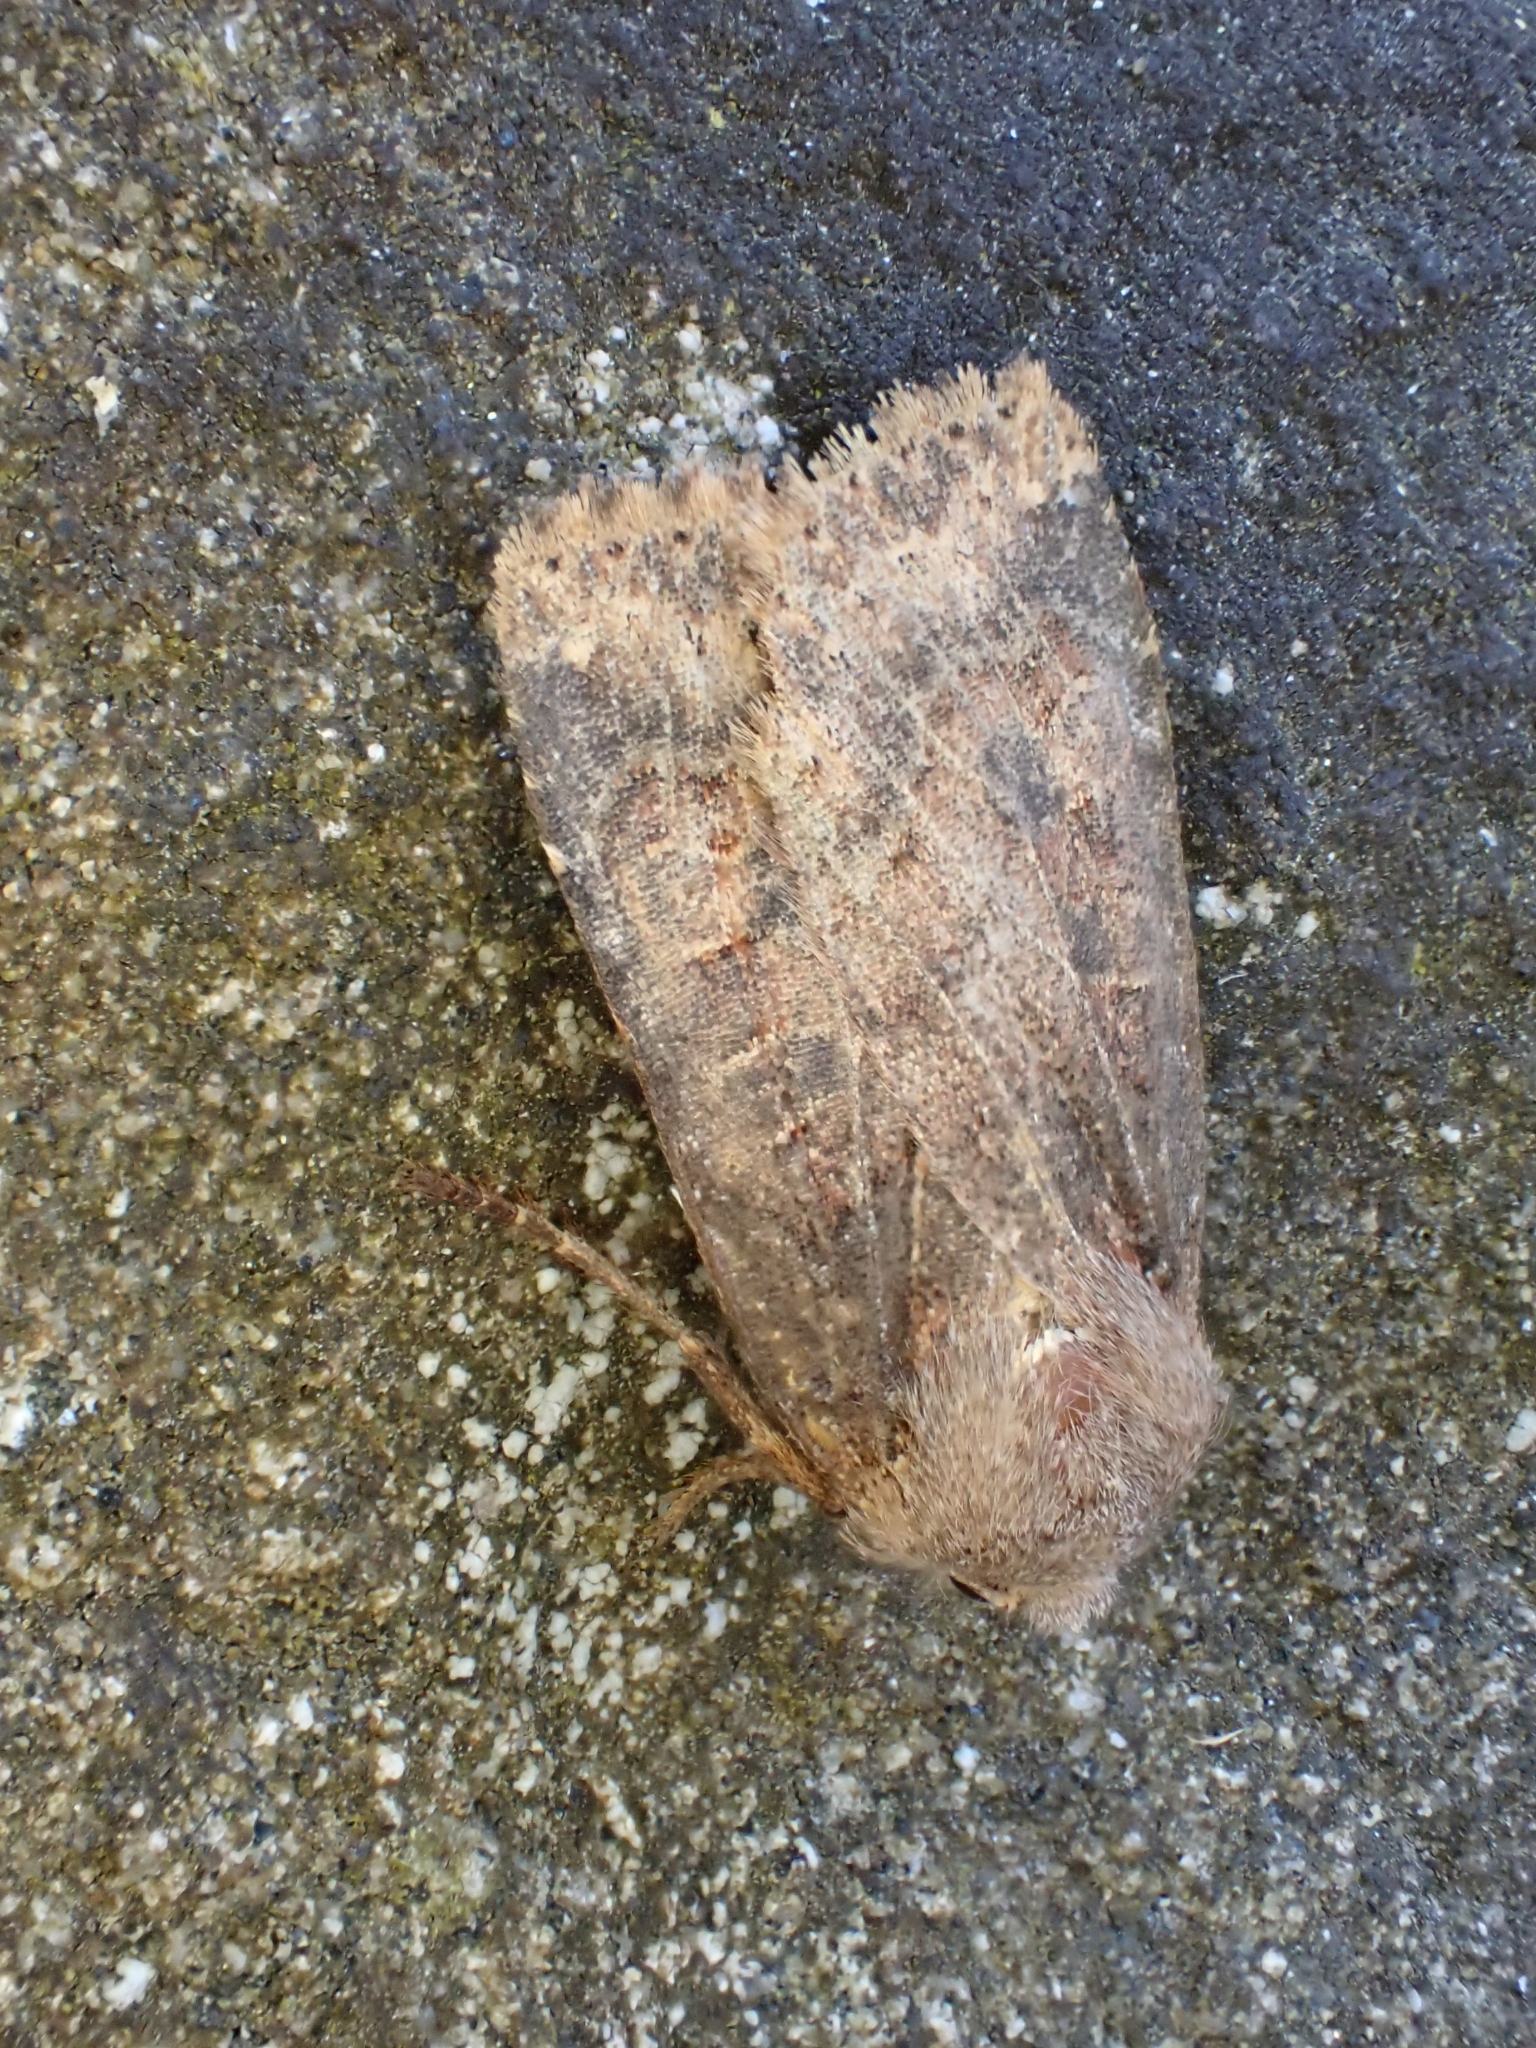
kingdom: Animalia
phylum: Arthropoda
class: Insecta
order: Lepidoptera
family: Noctuidae
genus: Conistra
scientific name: Conistra vaccinii
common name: Chestnut
